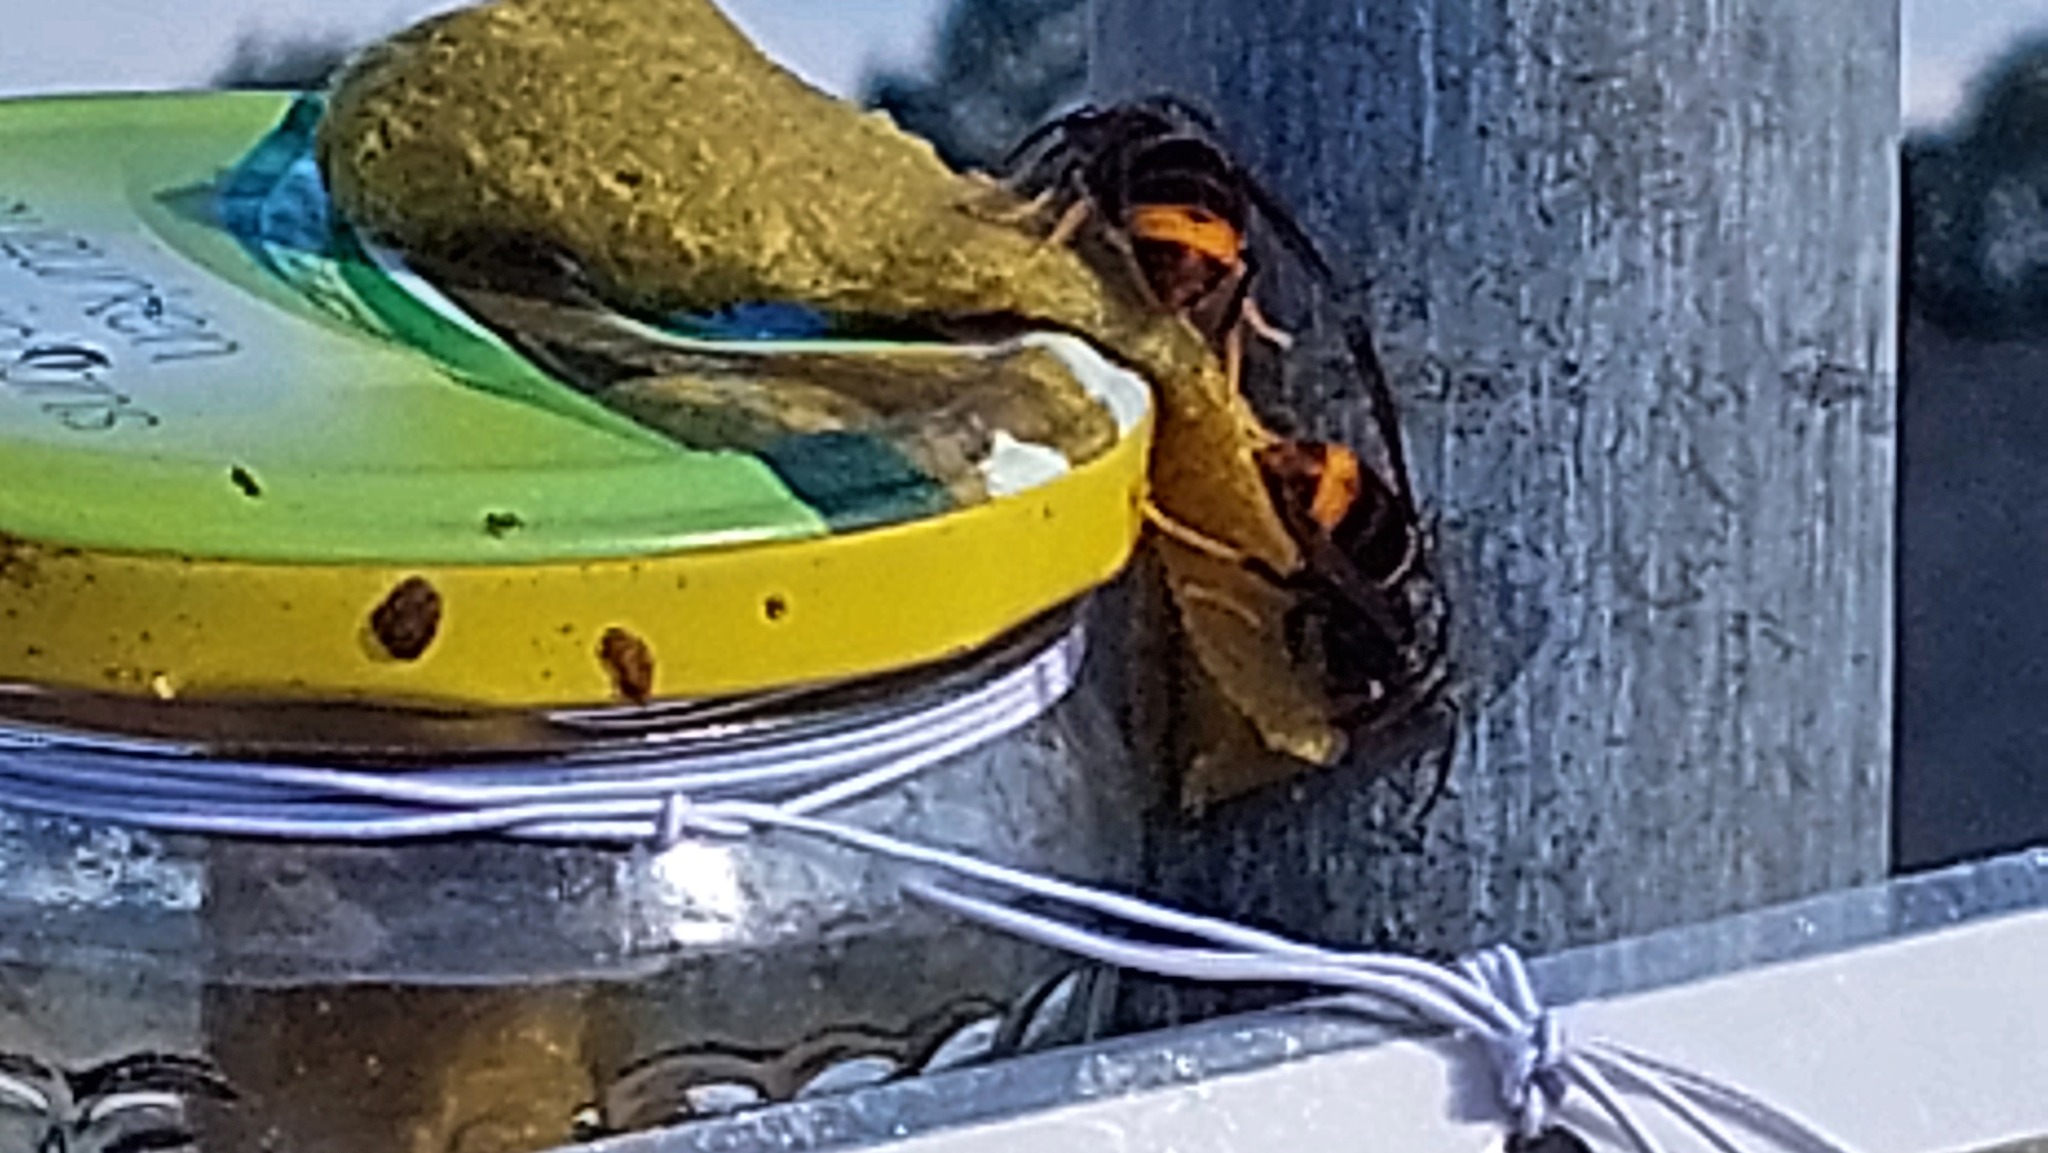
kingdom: Animalia
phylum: Arthropoda
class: Insecta
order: Hymenoptera
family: Vespidae
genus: Vespa
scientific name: Vespa velutina
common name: Asian hornet
